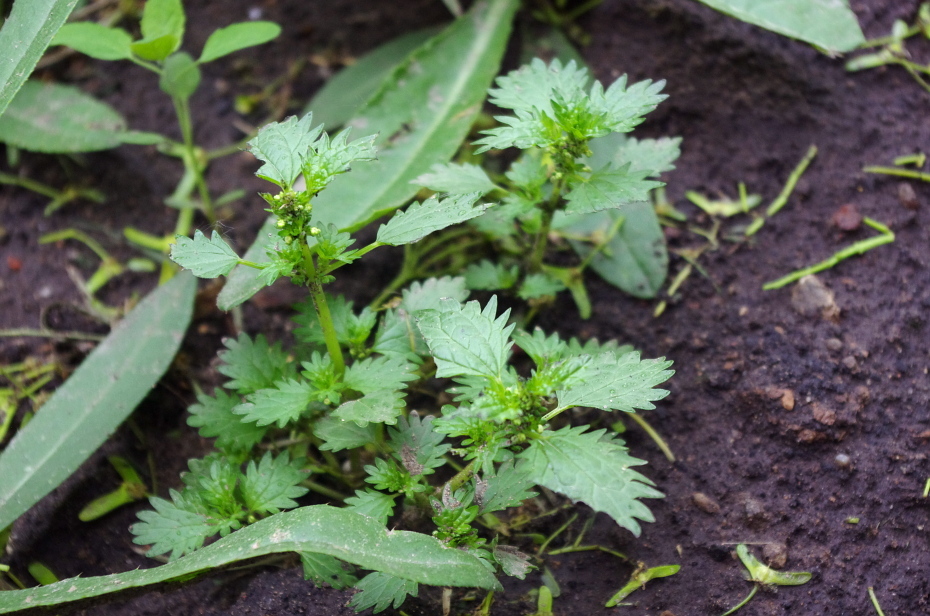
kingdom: Plantae
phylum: Tracheophyta
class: Magnoliopsida
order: Rosales
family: Urticaceae
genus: Urtica
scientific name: Urtica urens
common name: Dwarf nettle
